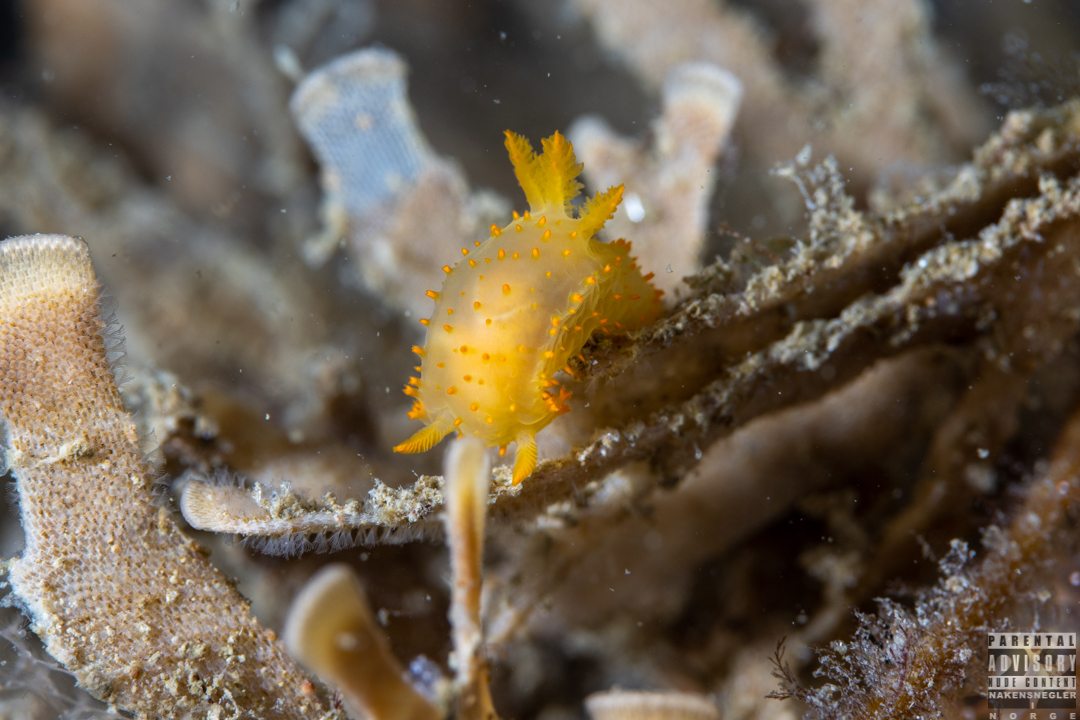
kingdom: Animalia
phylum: Mollusca
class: Gastropoda
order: Nudibranchia
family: Polyceridae
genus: Crimora
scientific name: Crimora papillata
